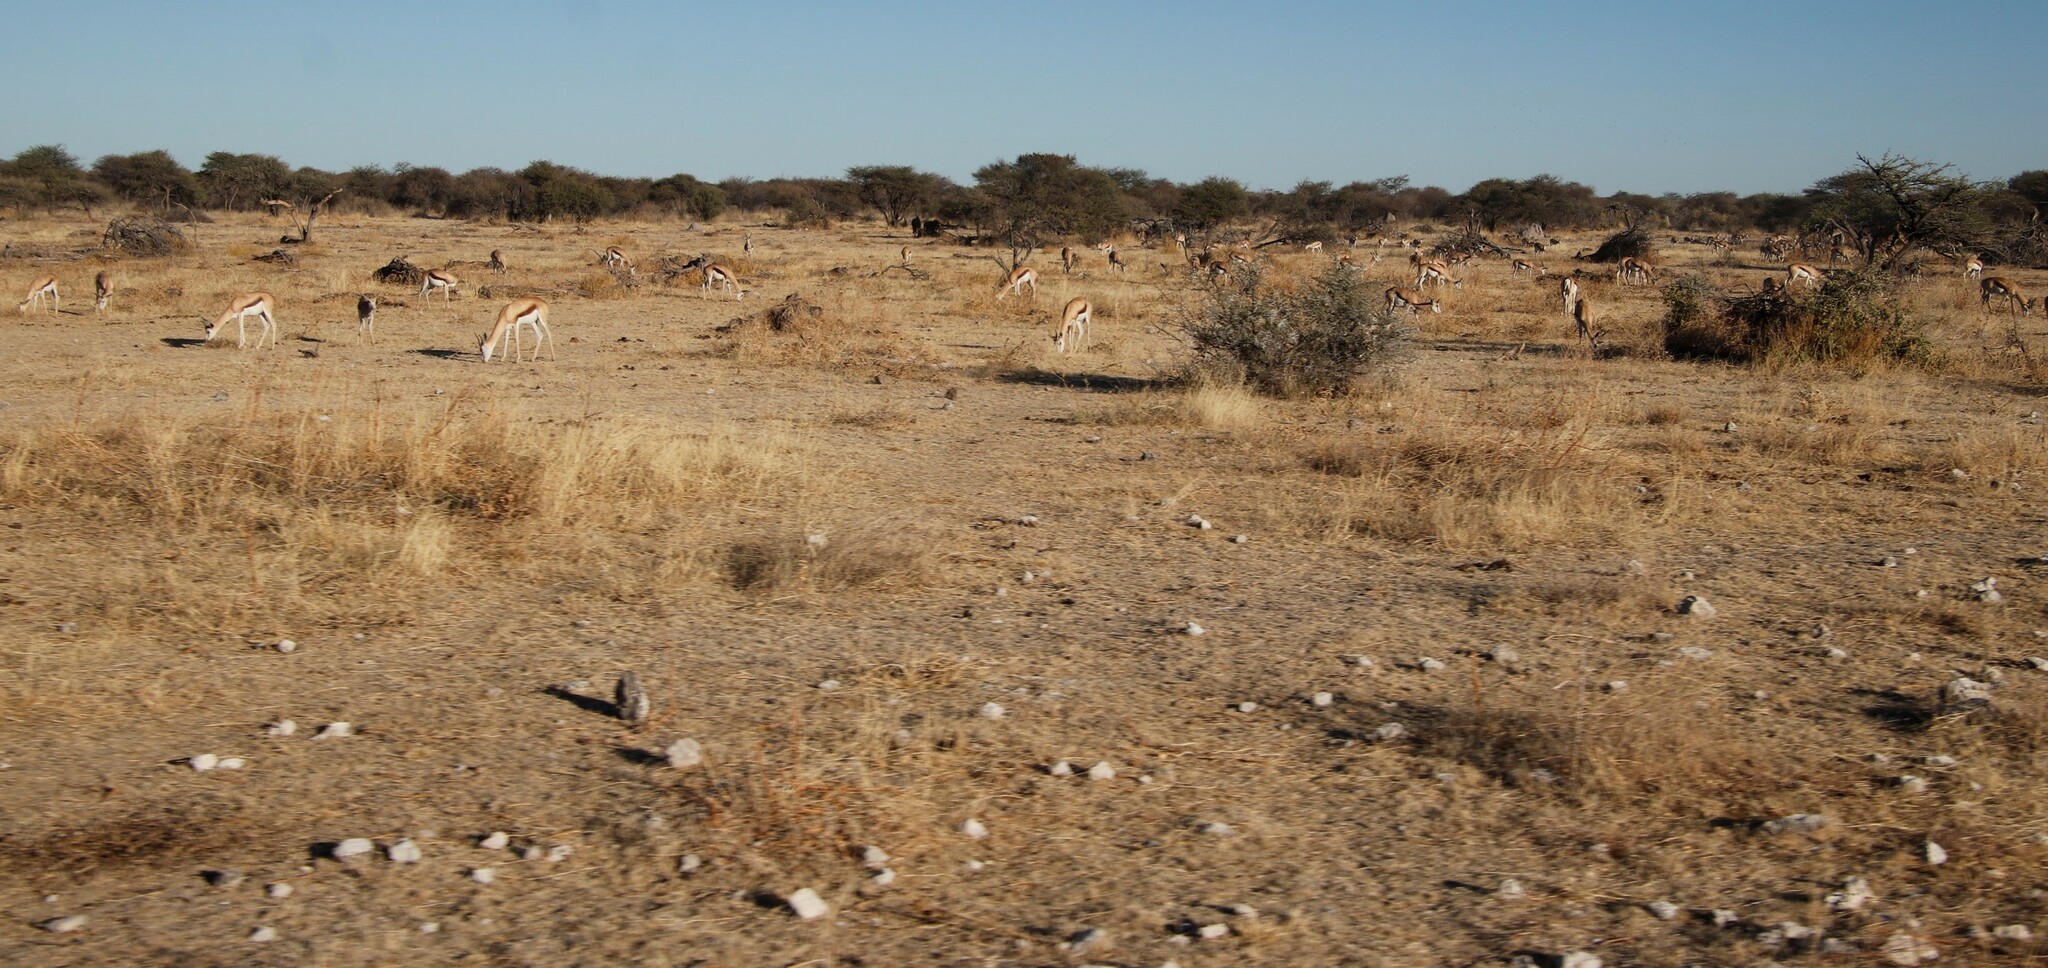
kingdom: Animalia
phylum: Chordata
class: Mammalia
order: Artiodactyla
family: Bovidae
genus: Antidorcas
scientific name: Antidorcas marsupialis
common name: Springbok
